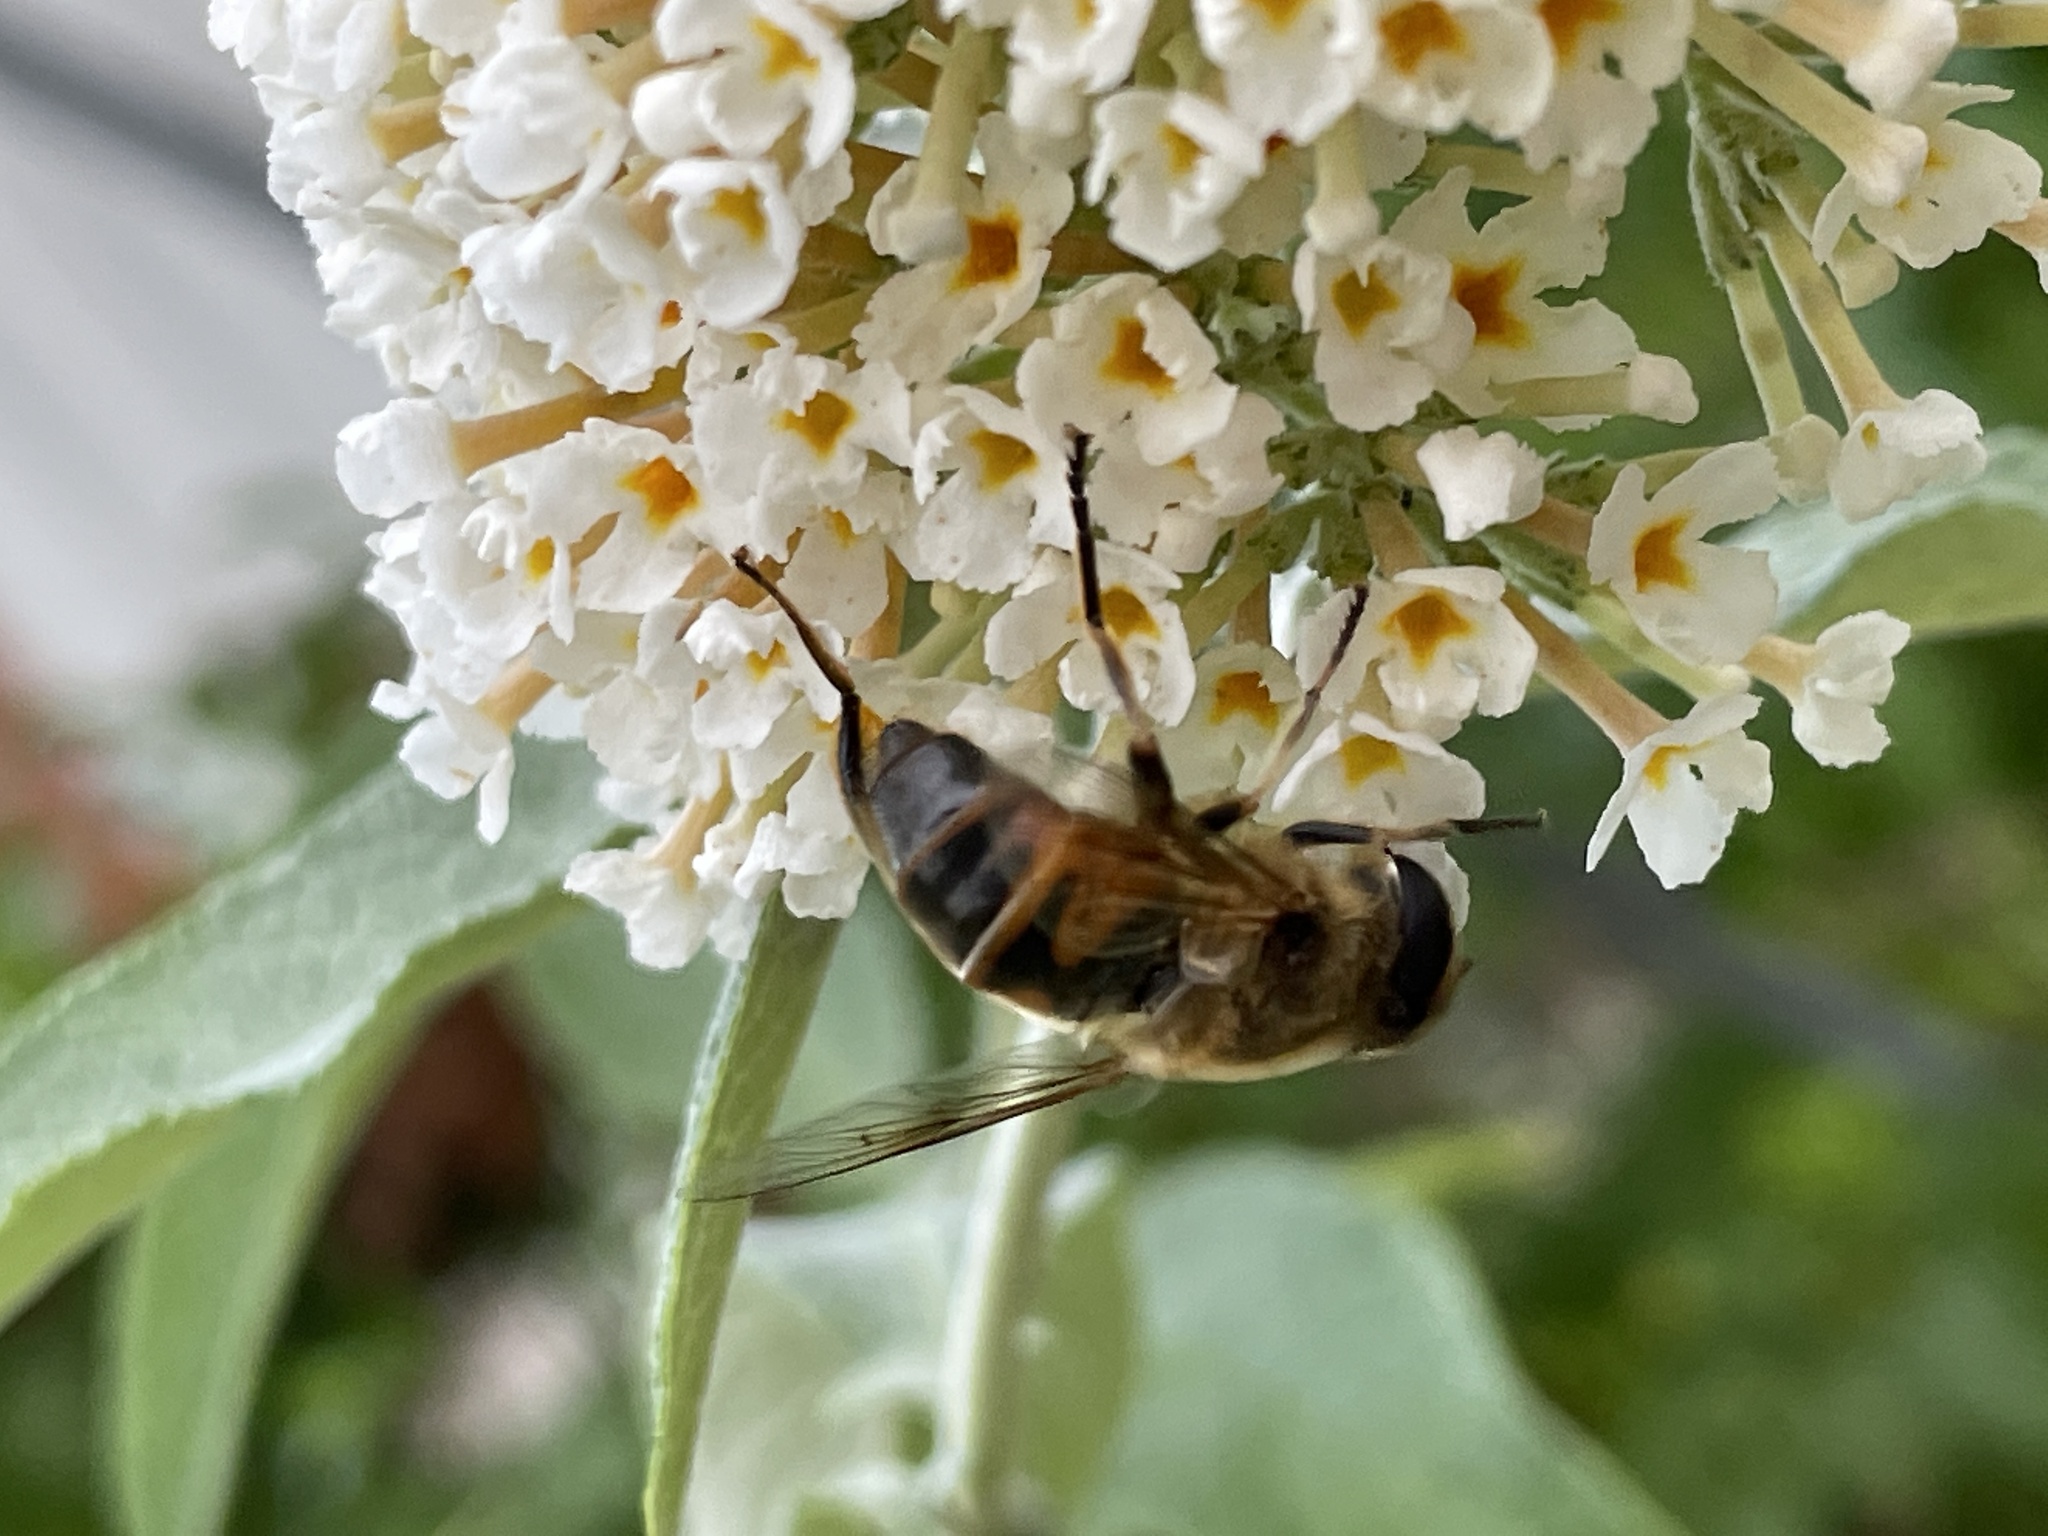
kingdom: Animalia
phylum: Arthropoda
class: Insecta
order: Diptera
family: Syrphidae
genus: Eristalis
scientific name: Eristalis tenax
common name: Drone fly
